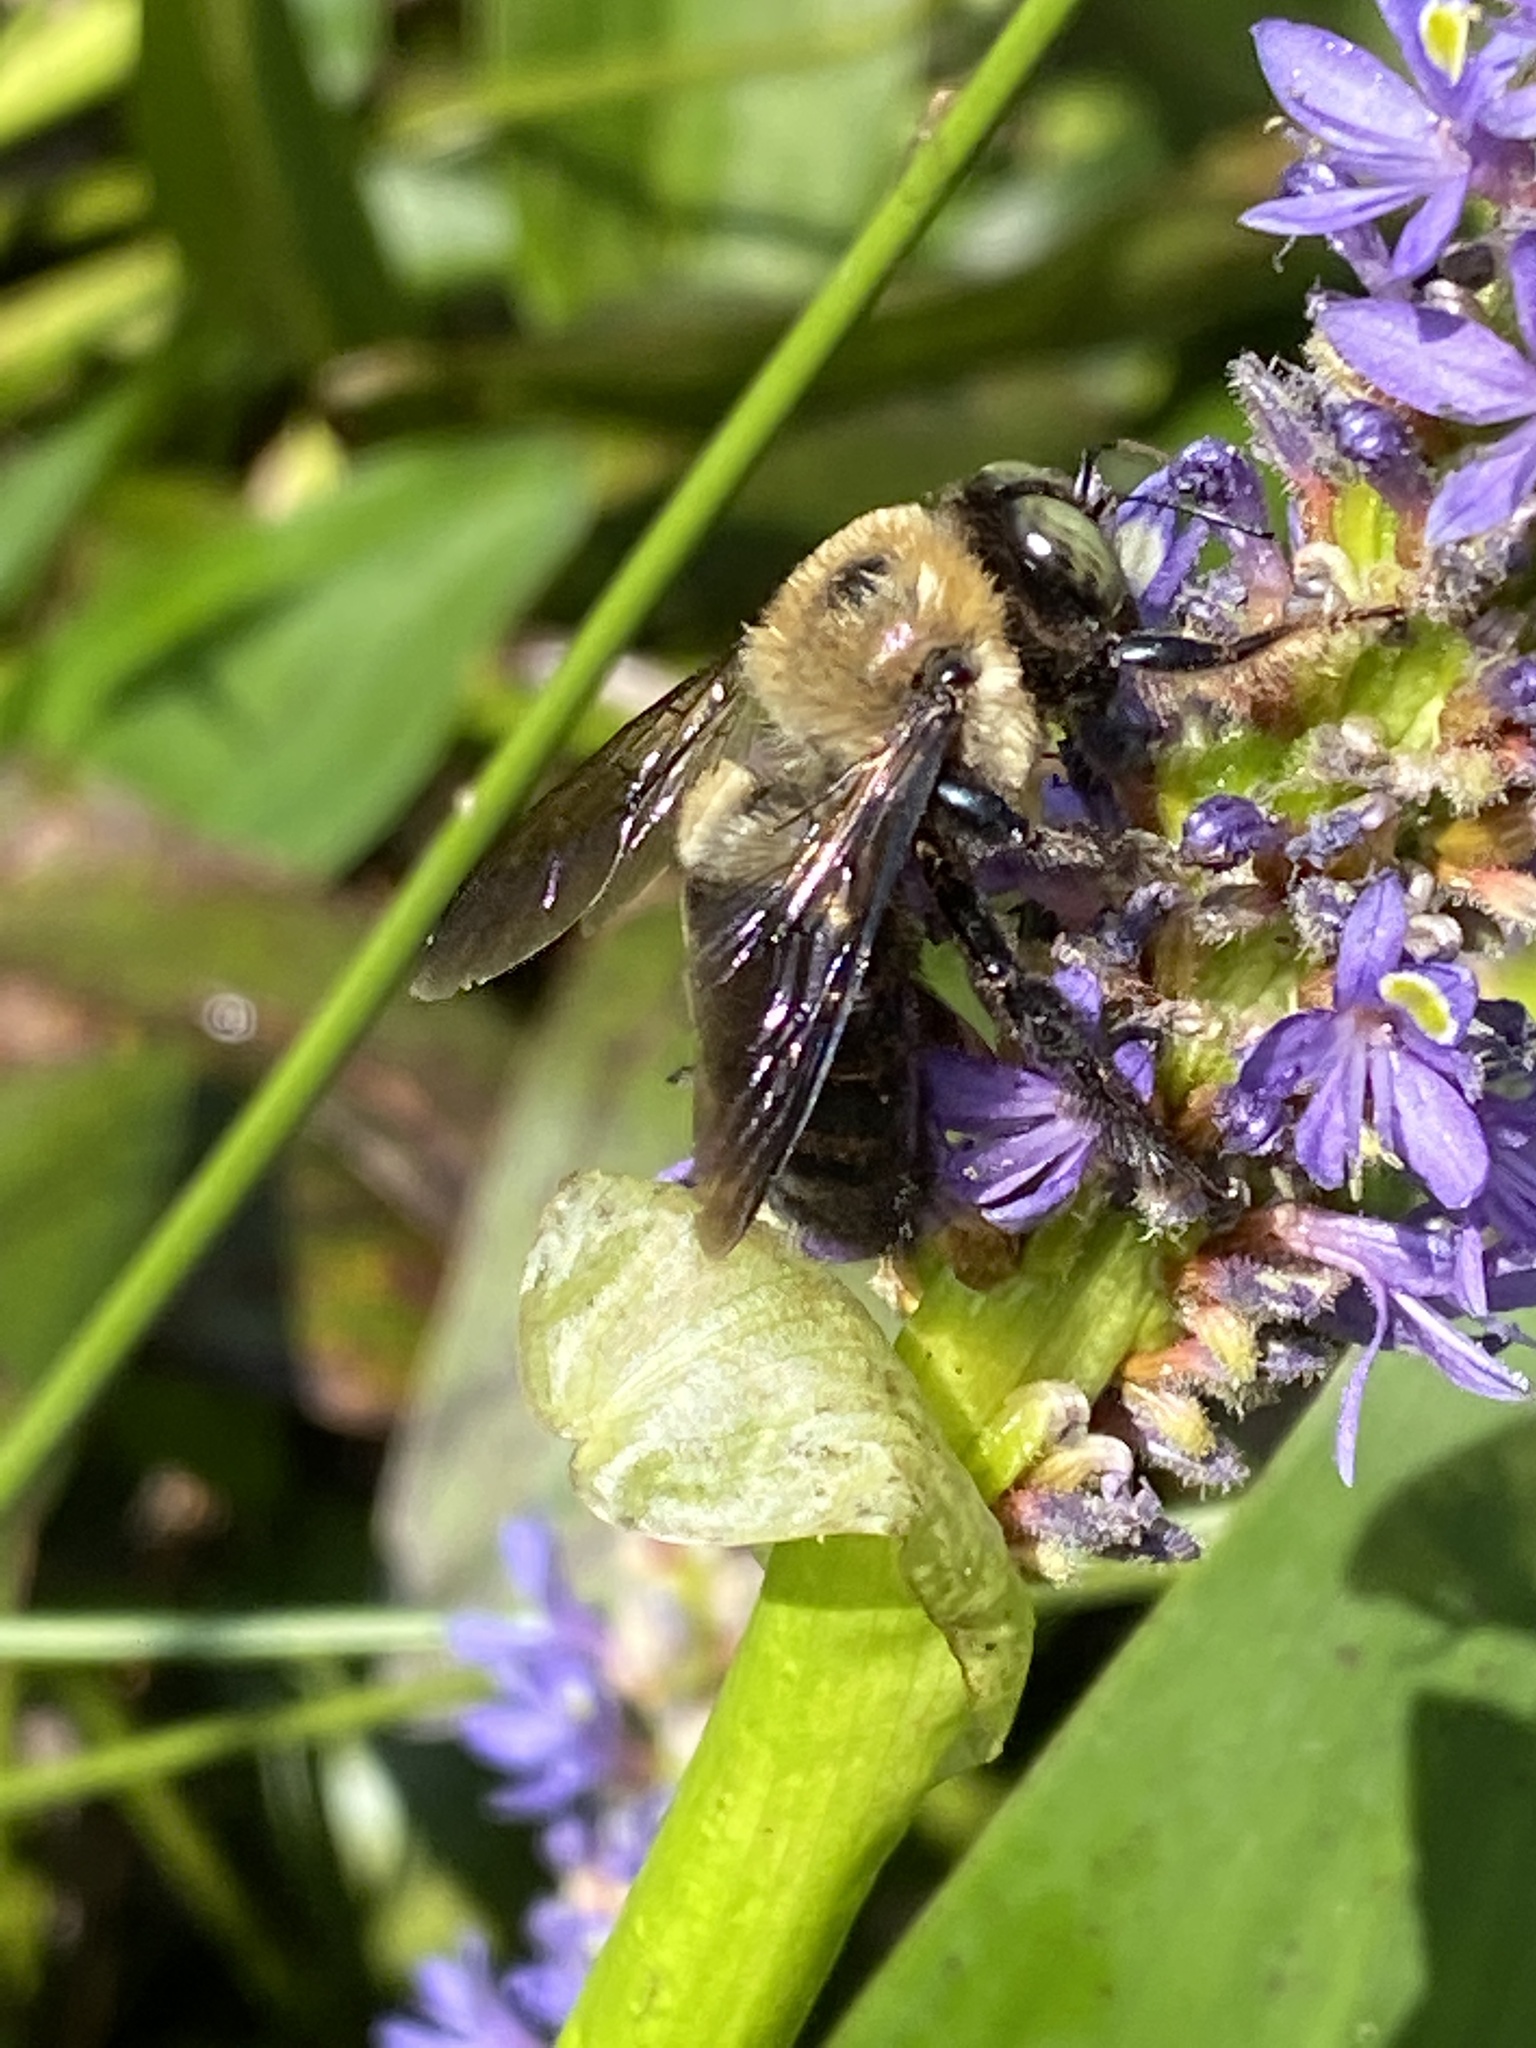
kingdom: Animalia
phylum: Arthropoda
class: Insecta
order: Hymenoptera
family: Apidae
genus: Xylocopa
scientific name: Xylocopa virginica
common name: Carpenter bee
